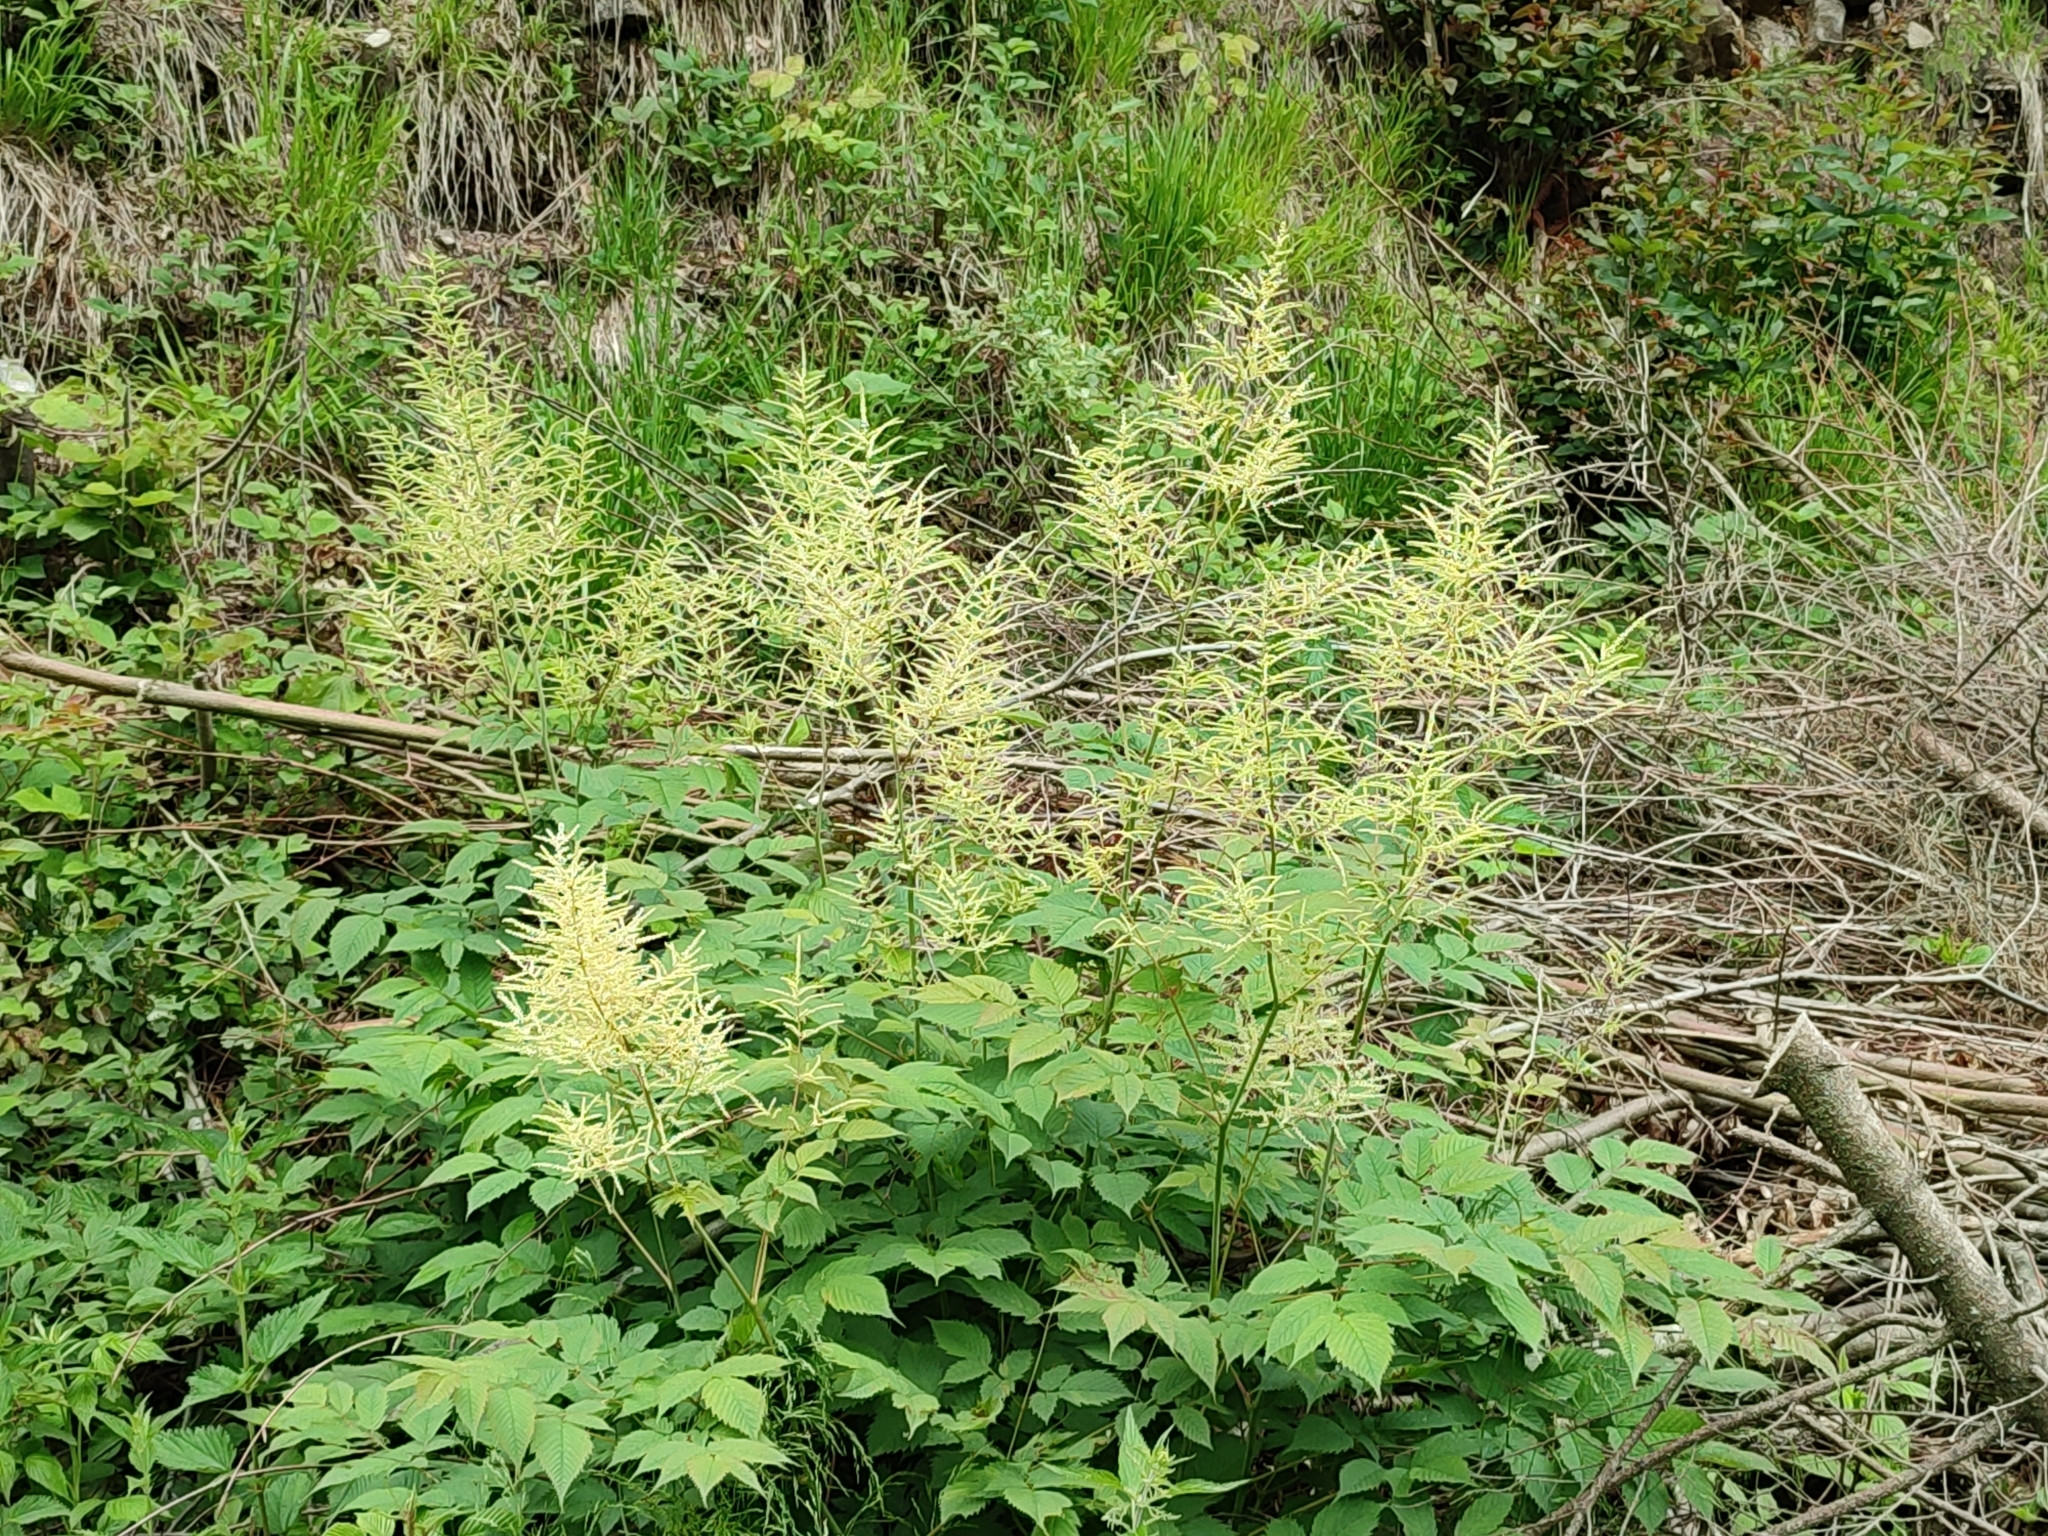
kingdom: Plantae
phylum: Tracheophyta
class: Magnoliopsida
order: Rosales
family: Rosaceae
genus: Aruncus
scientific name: Aruncus dioicus
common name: Buck's-beard
